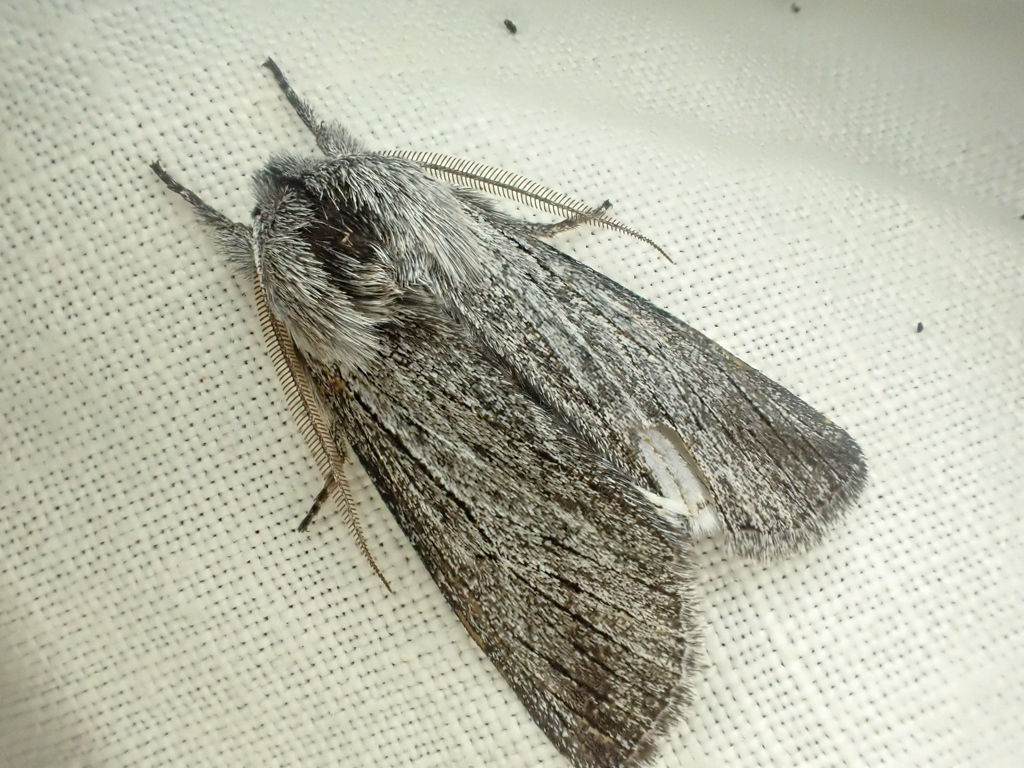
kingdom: Animalia
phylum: Arthropoda
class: Insecta
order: Lepidoptera
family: Noctuidae
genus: Pleromella
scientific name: Pleromella opter
